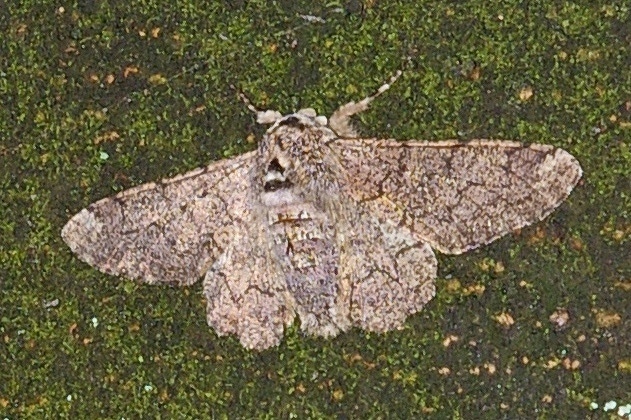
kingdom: Animalia
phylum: Arthropoda
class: Insecta
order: Lepidoptera
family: Geometridae
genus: Biston
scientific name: Biston robustum
